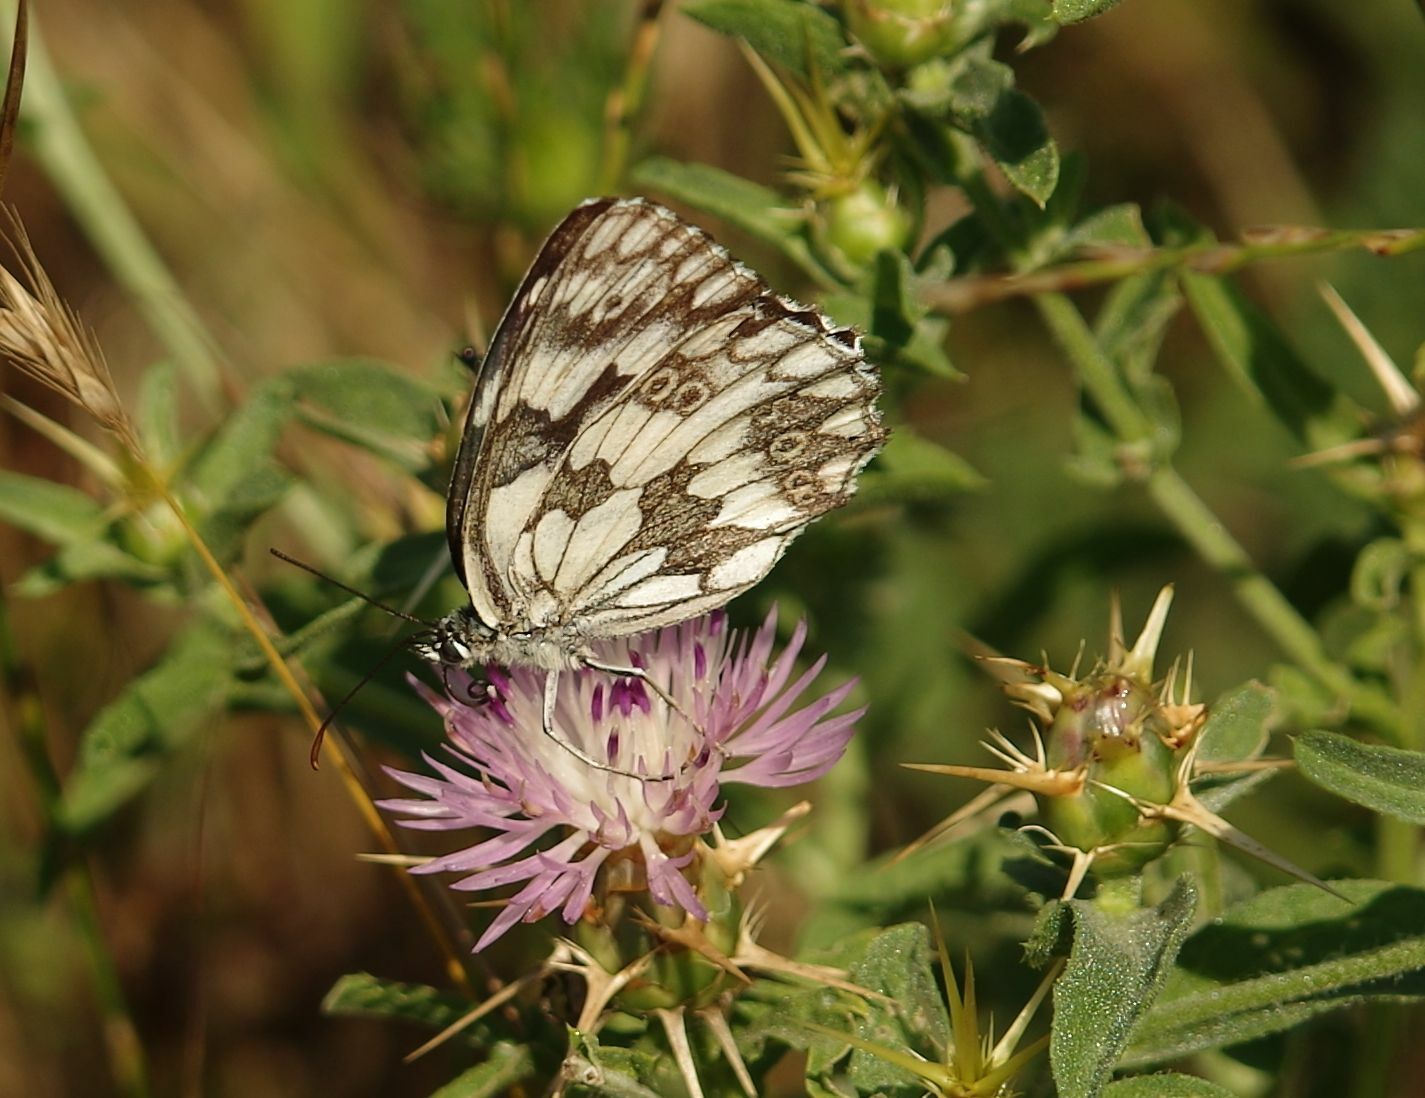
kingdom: Animalia
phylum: Arthropoda
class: Insecta
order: Lepidoptera
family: Nymphalidae
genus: Melanargia
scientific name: Melanargia galathea
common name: Marbled white
